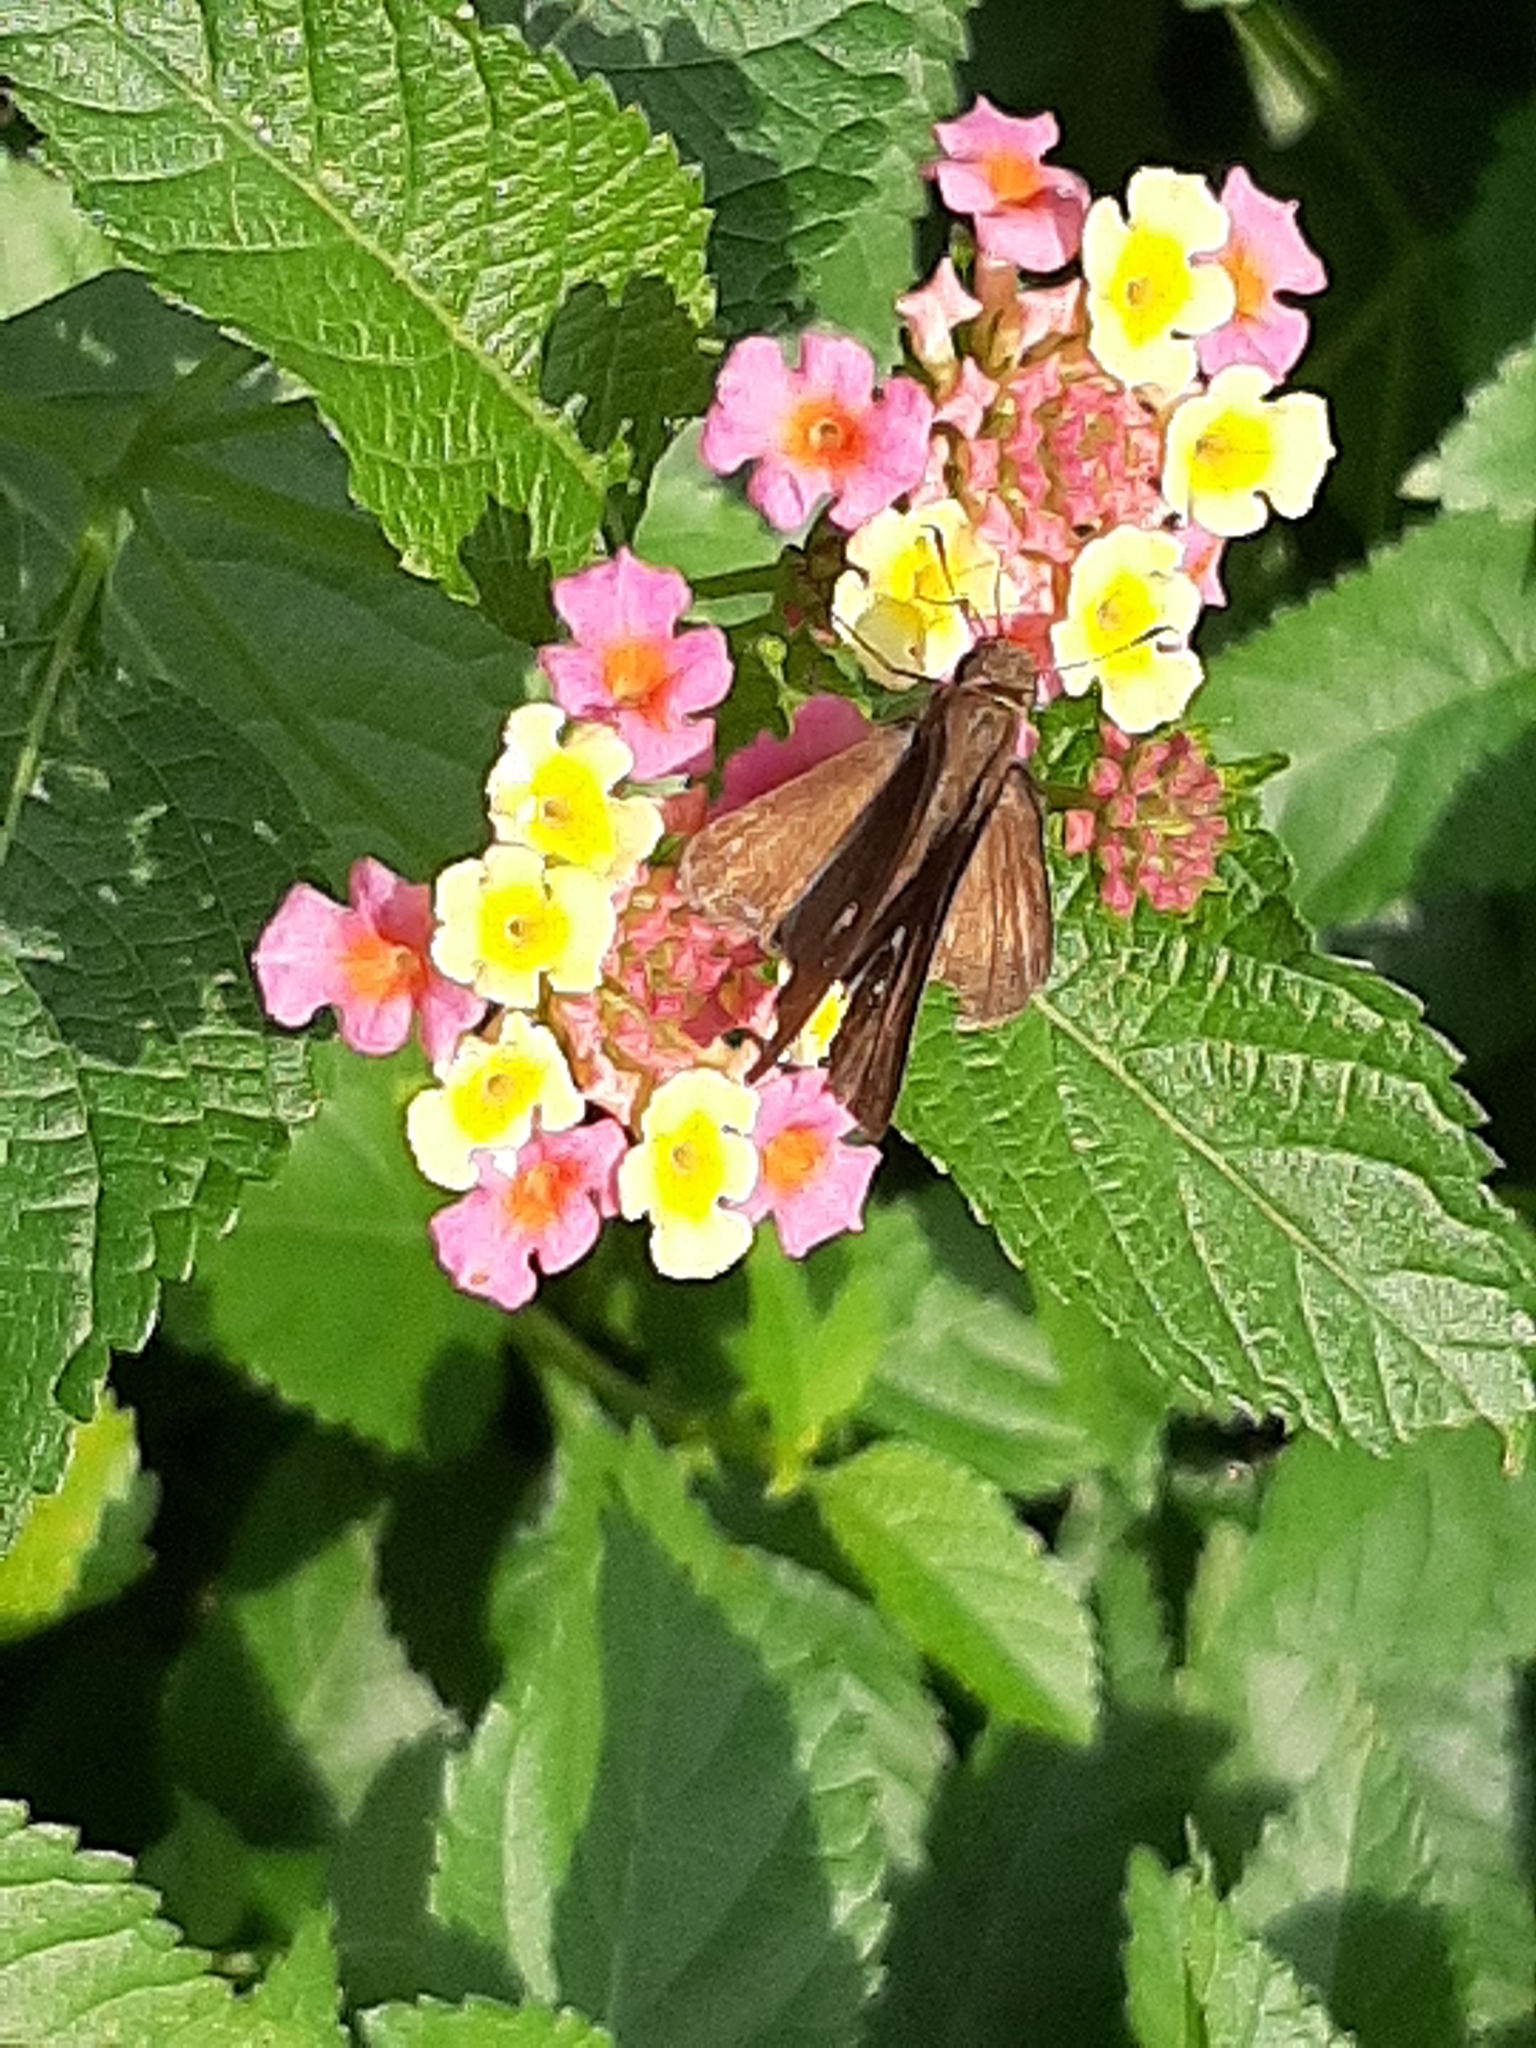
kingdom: Animalia
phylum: Arthropoda
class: Insecta
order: Lepidoptera
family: Hesperiidae
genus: Panoquina
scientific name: Panoquina ocola
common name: Ocola skipper
